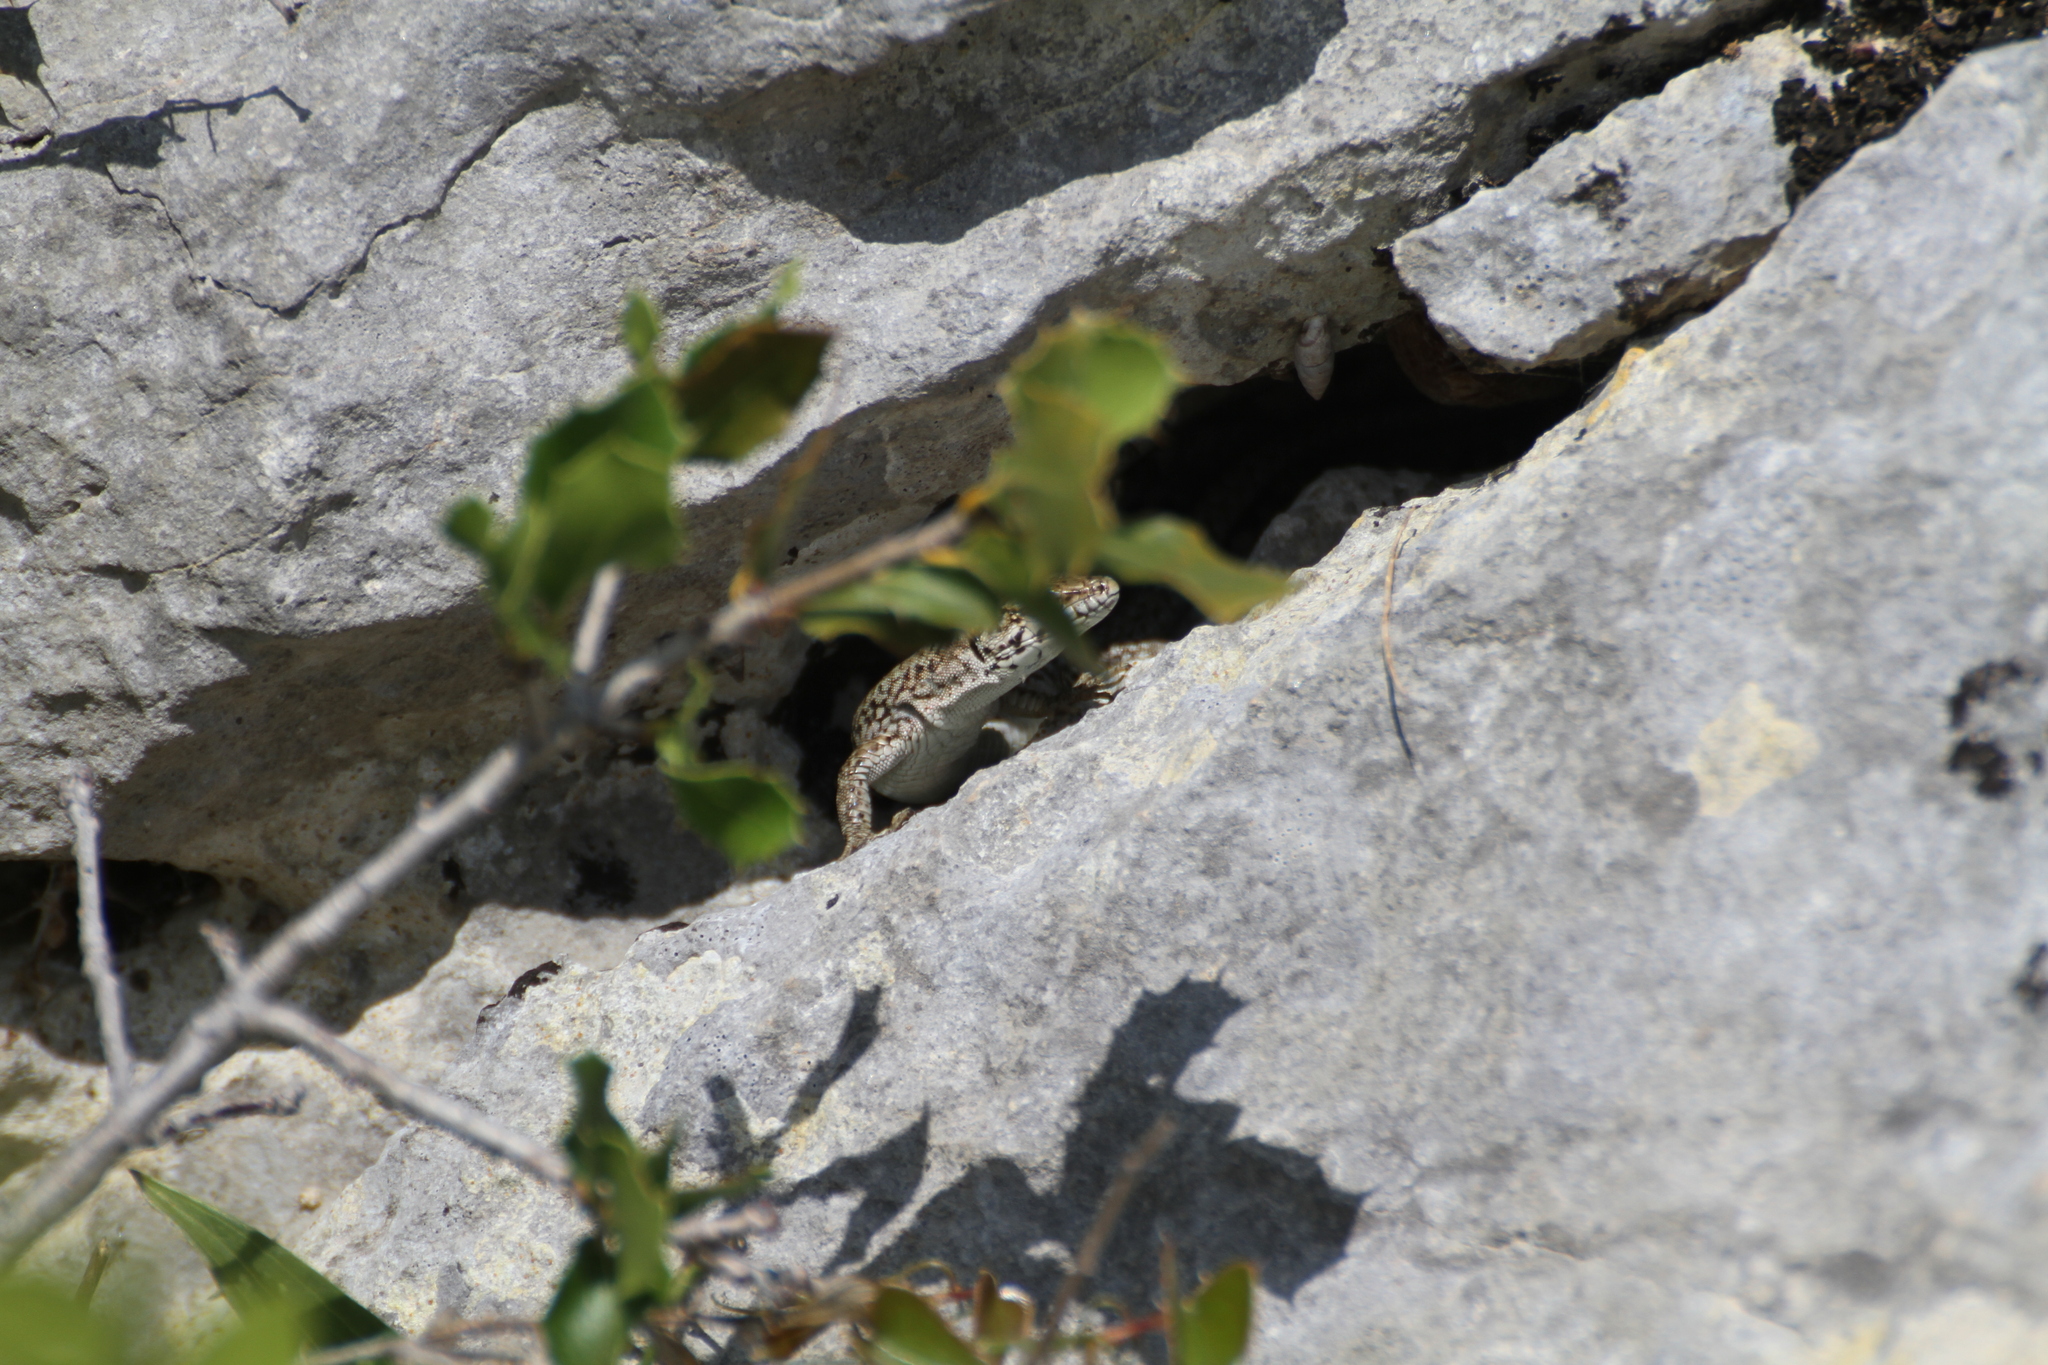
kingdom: Animalia
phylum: Chordata
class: Squamata
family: Lacertidae
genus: Podarcis
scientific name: Podarcis liolepis
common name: Catalonian wall lizard
